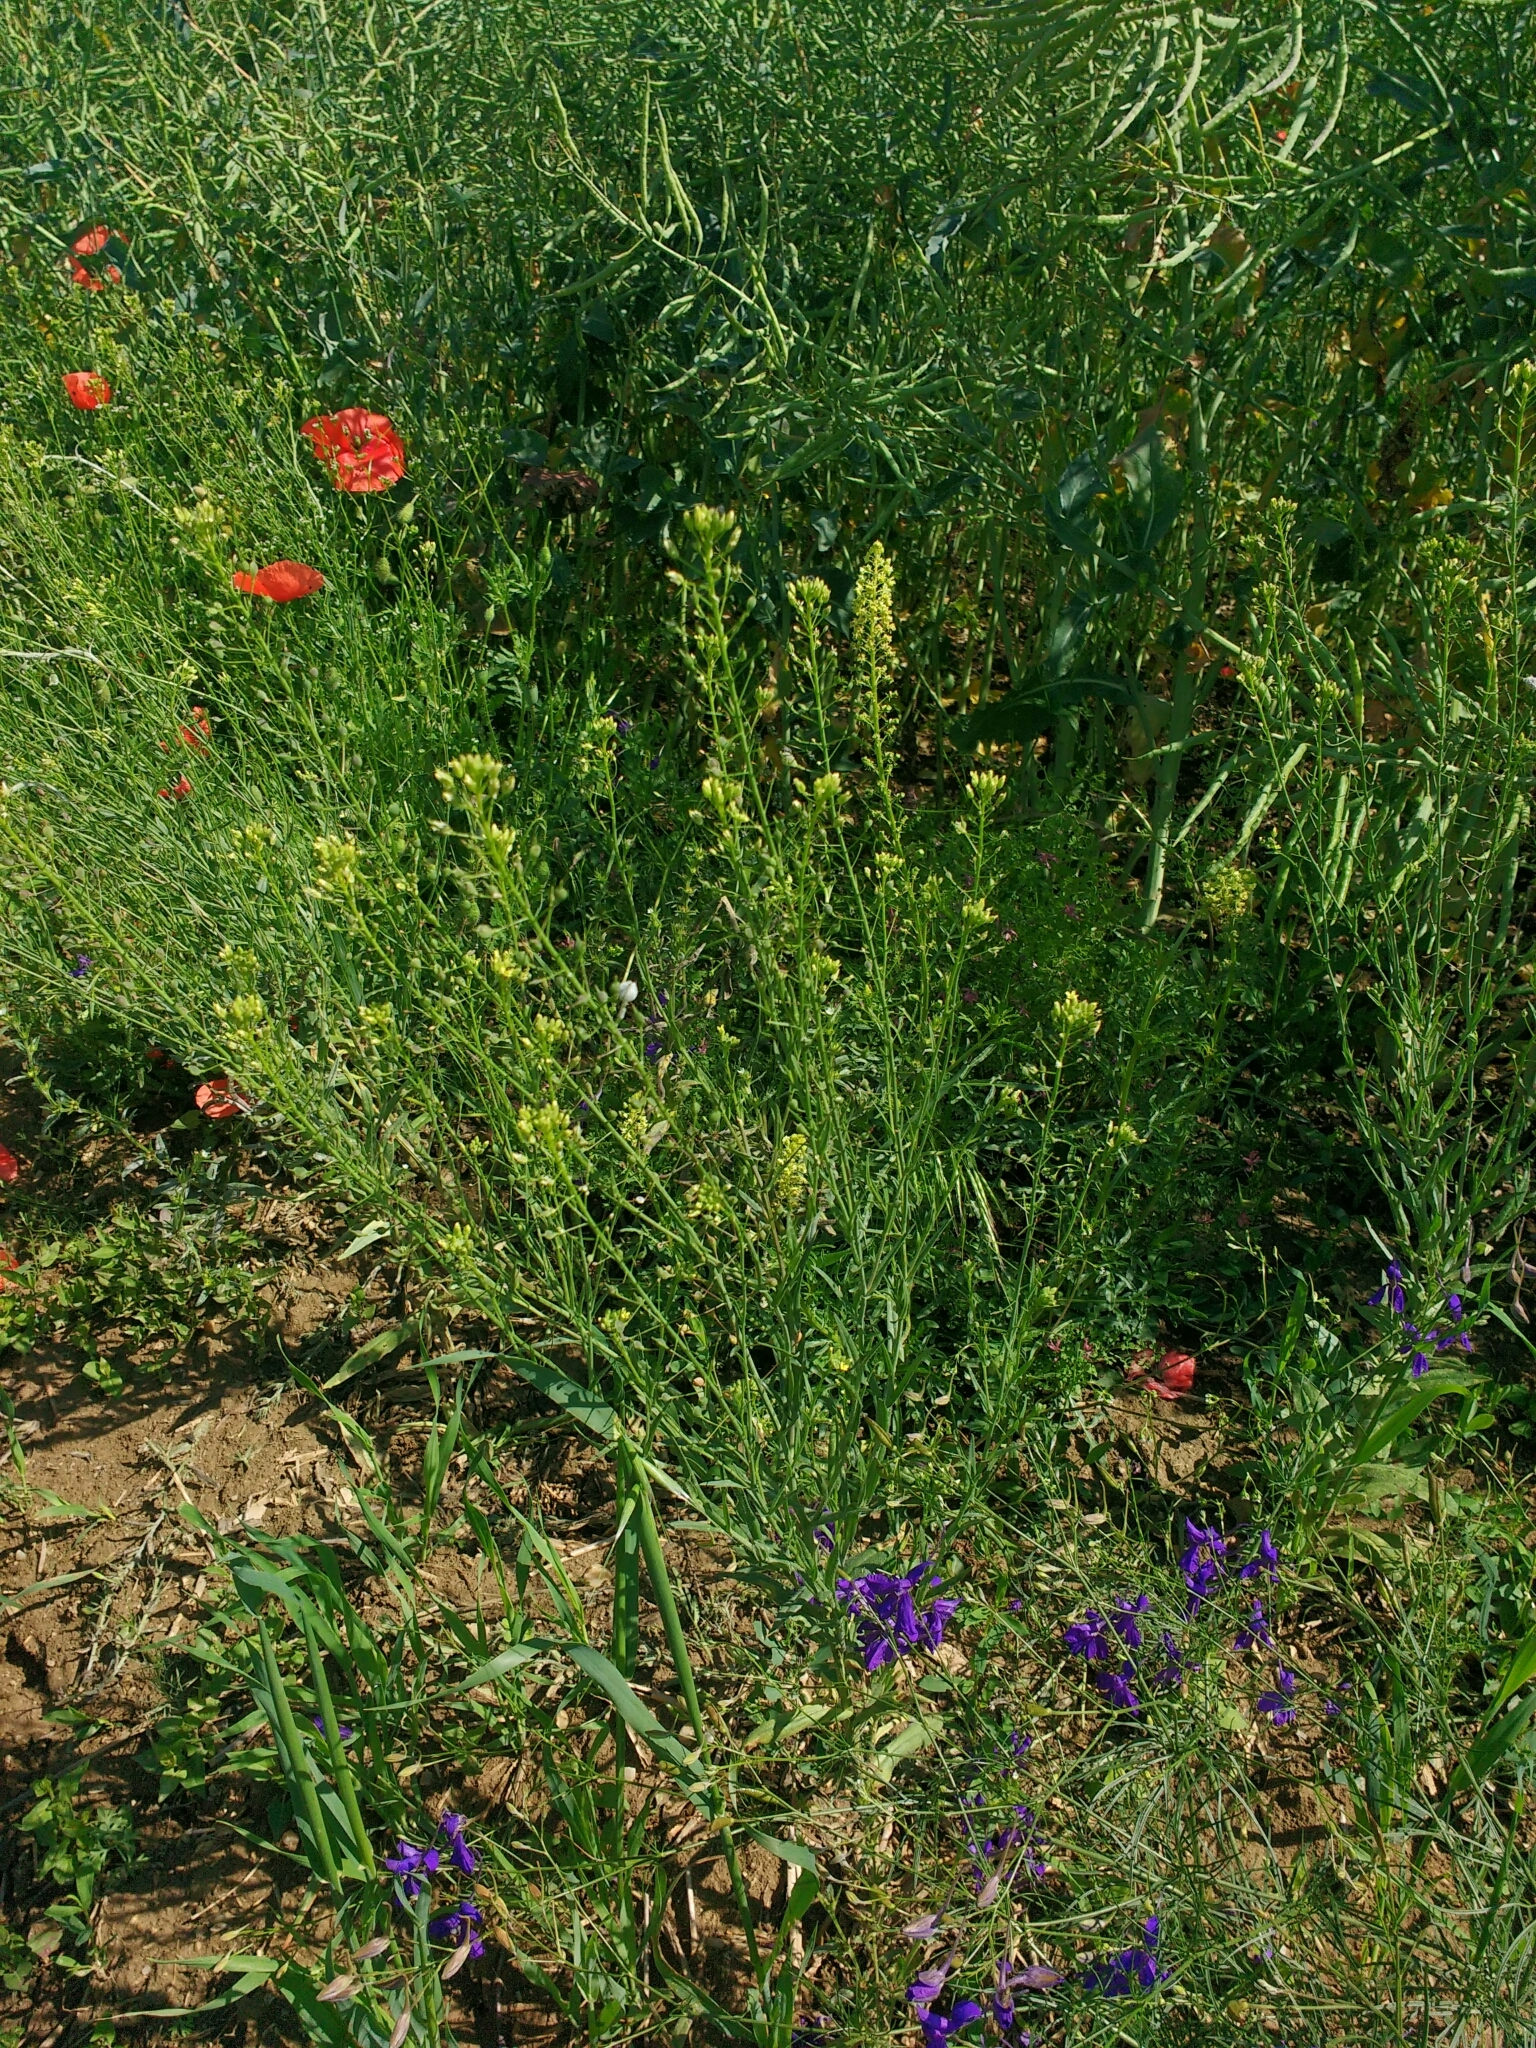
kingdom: Plantae
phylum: Tracheophyta
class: Magnoliopsida
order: Brassicales
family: Brassicaceae
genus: Camelina
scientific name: Camelina microcarpa
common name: Lesser gold-of-pleasure
